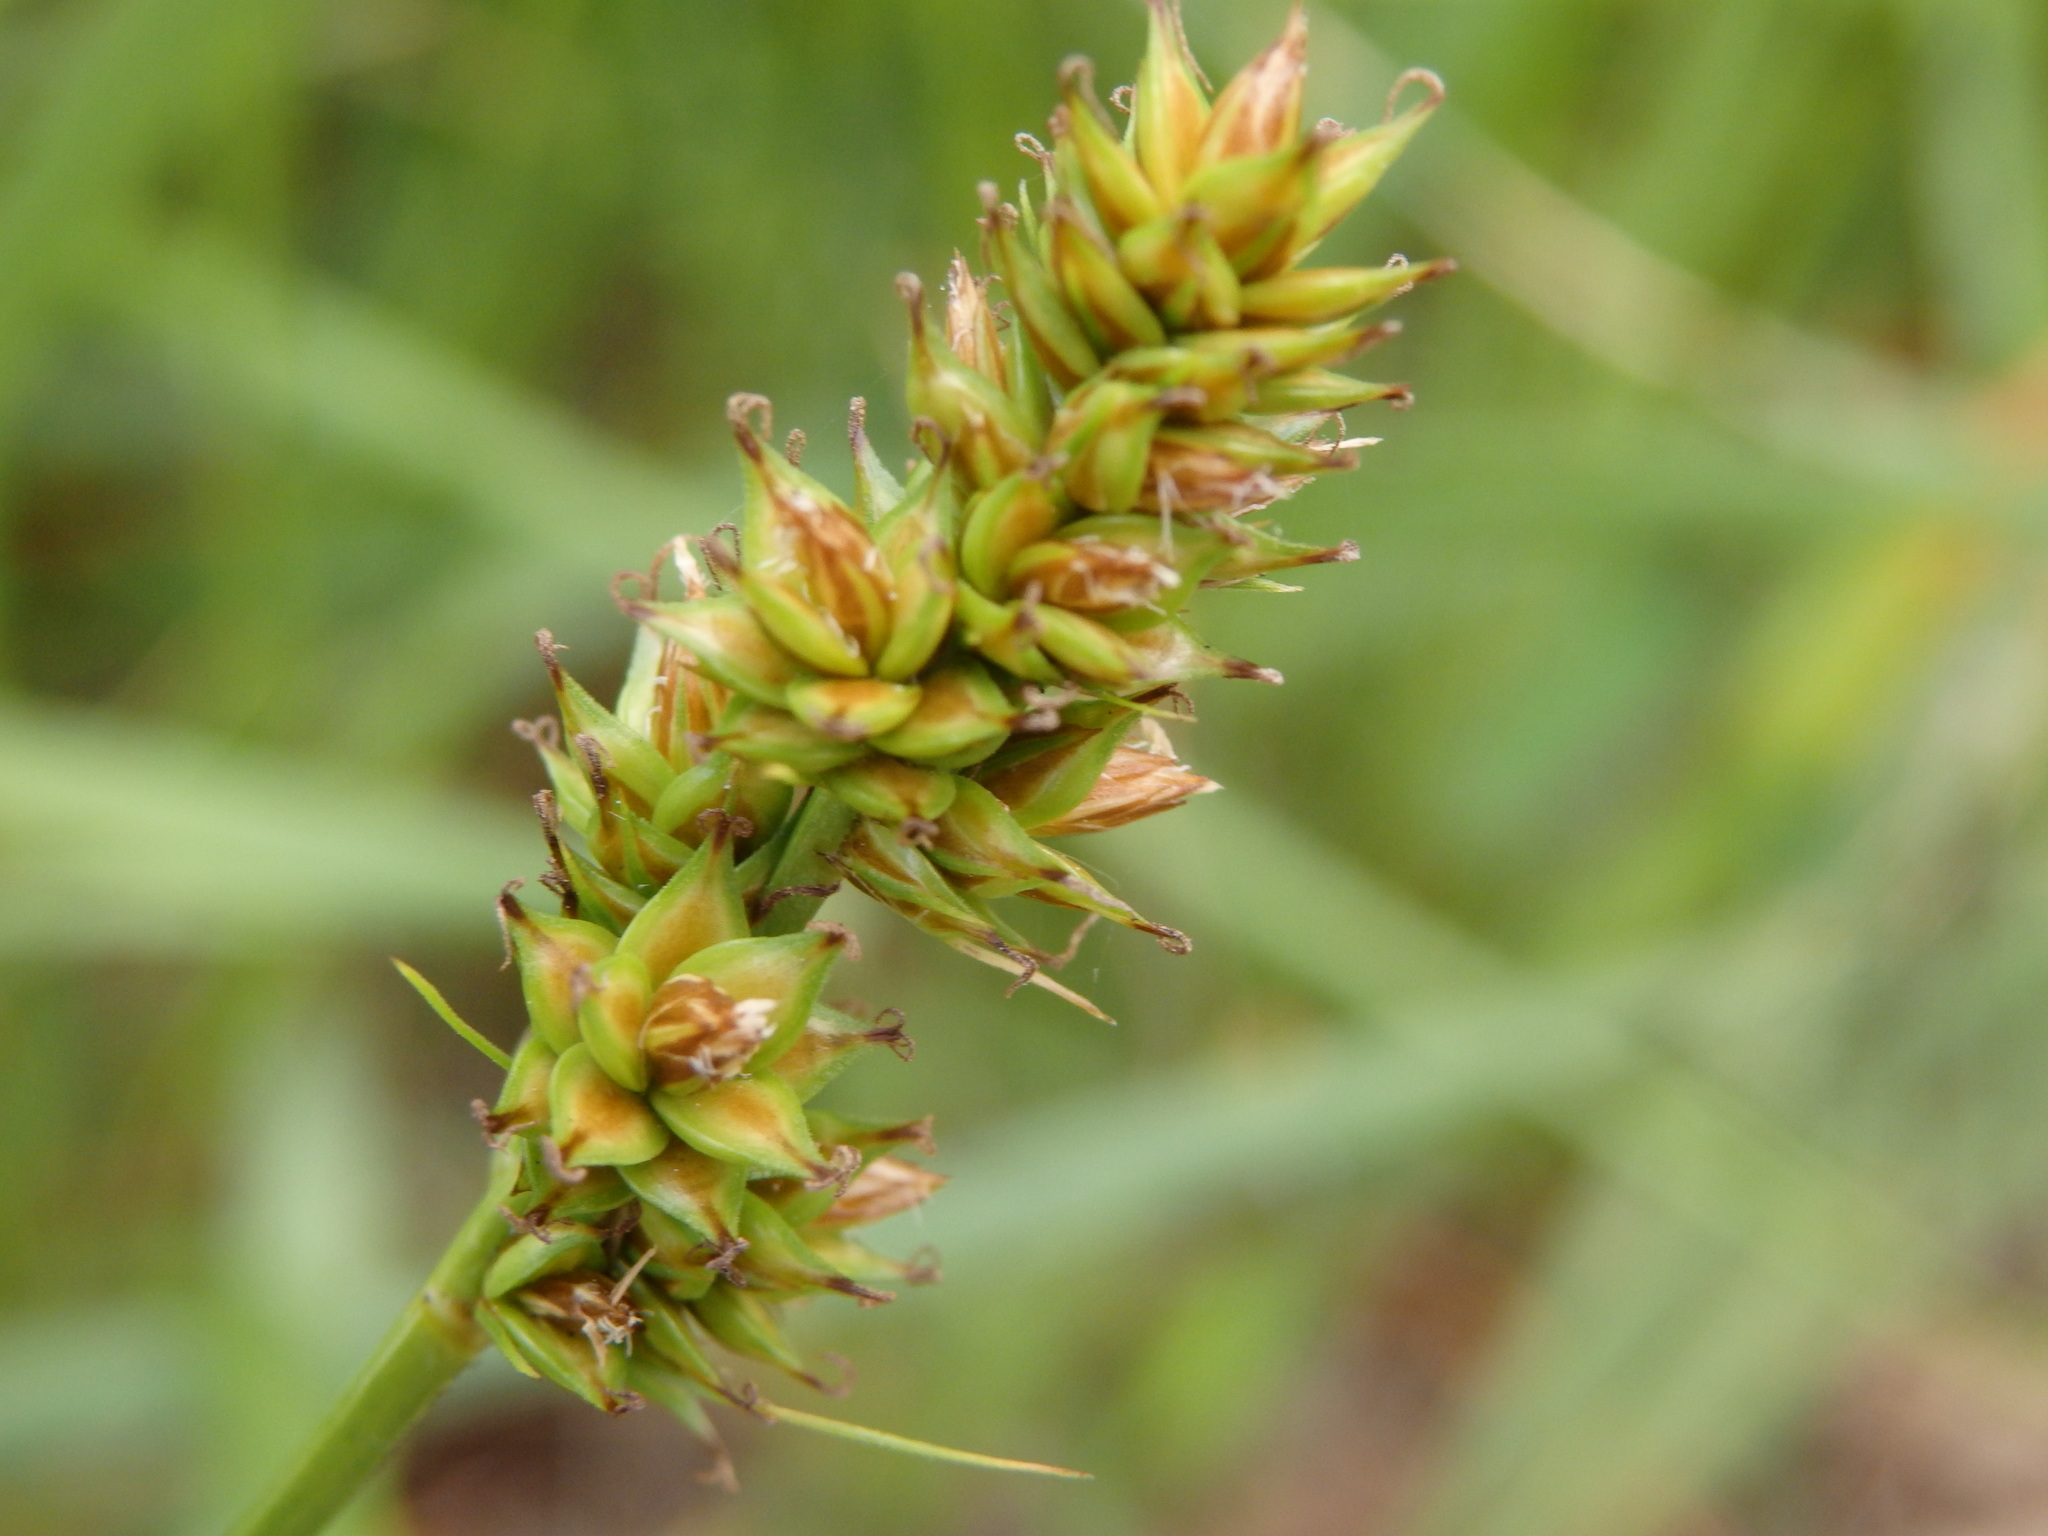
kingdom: Plantae
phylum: Tracheophyta
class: Liliopsida
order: Poales
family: Cyperaceae
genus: Carex
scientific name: Carex pairae
